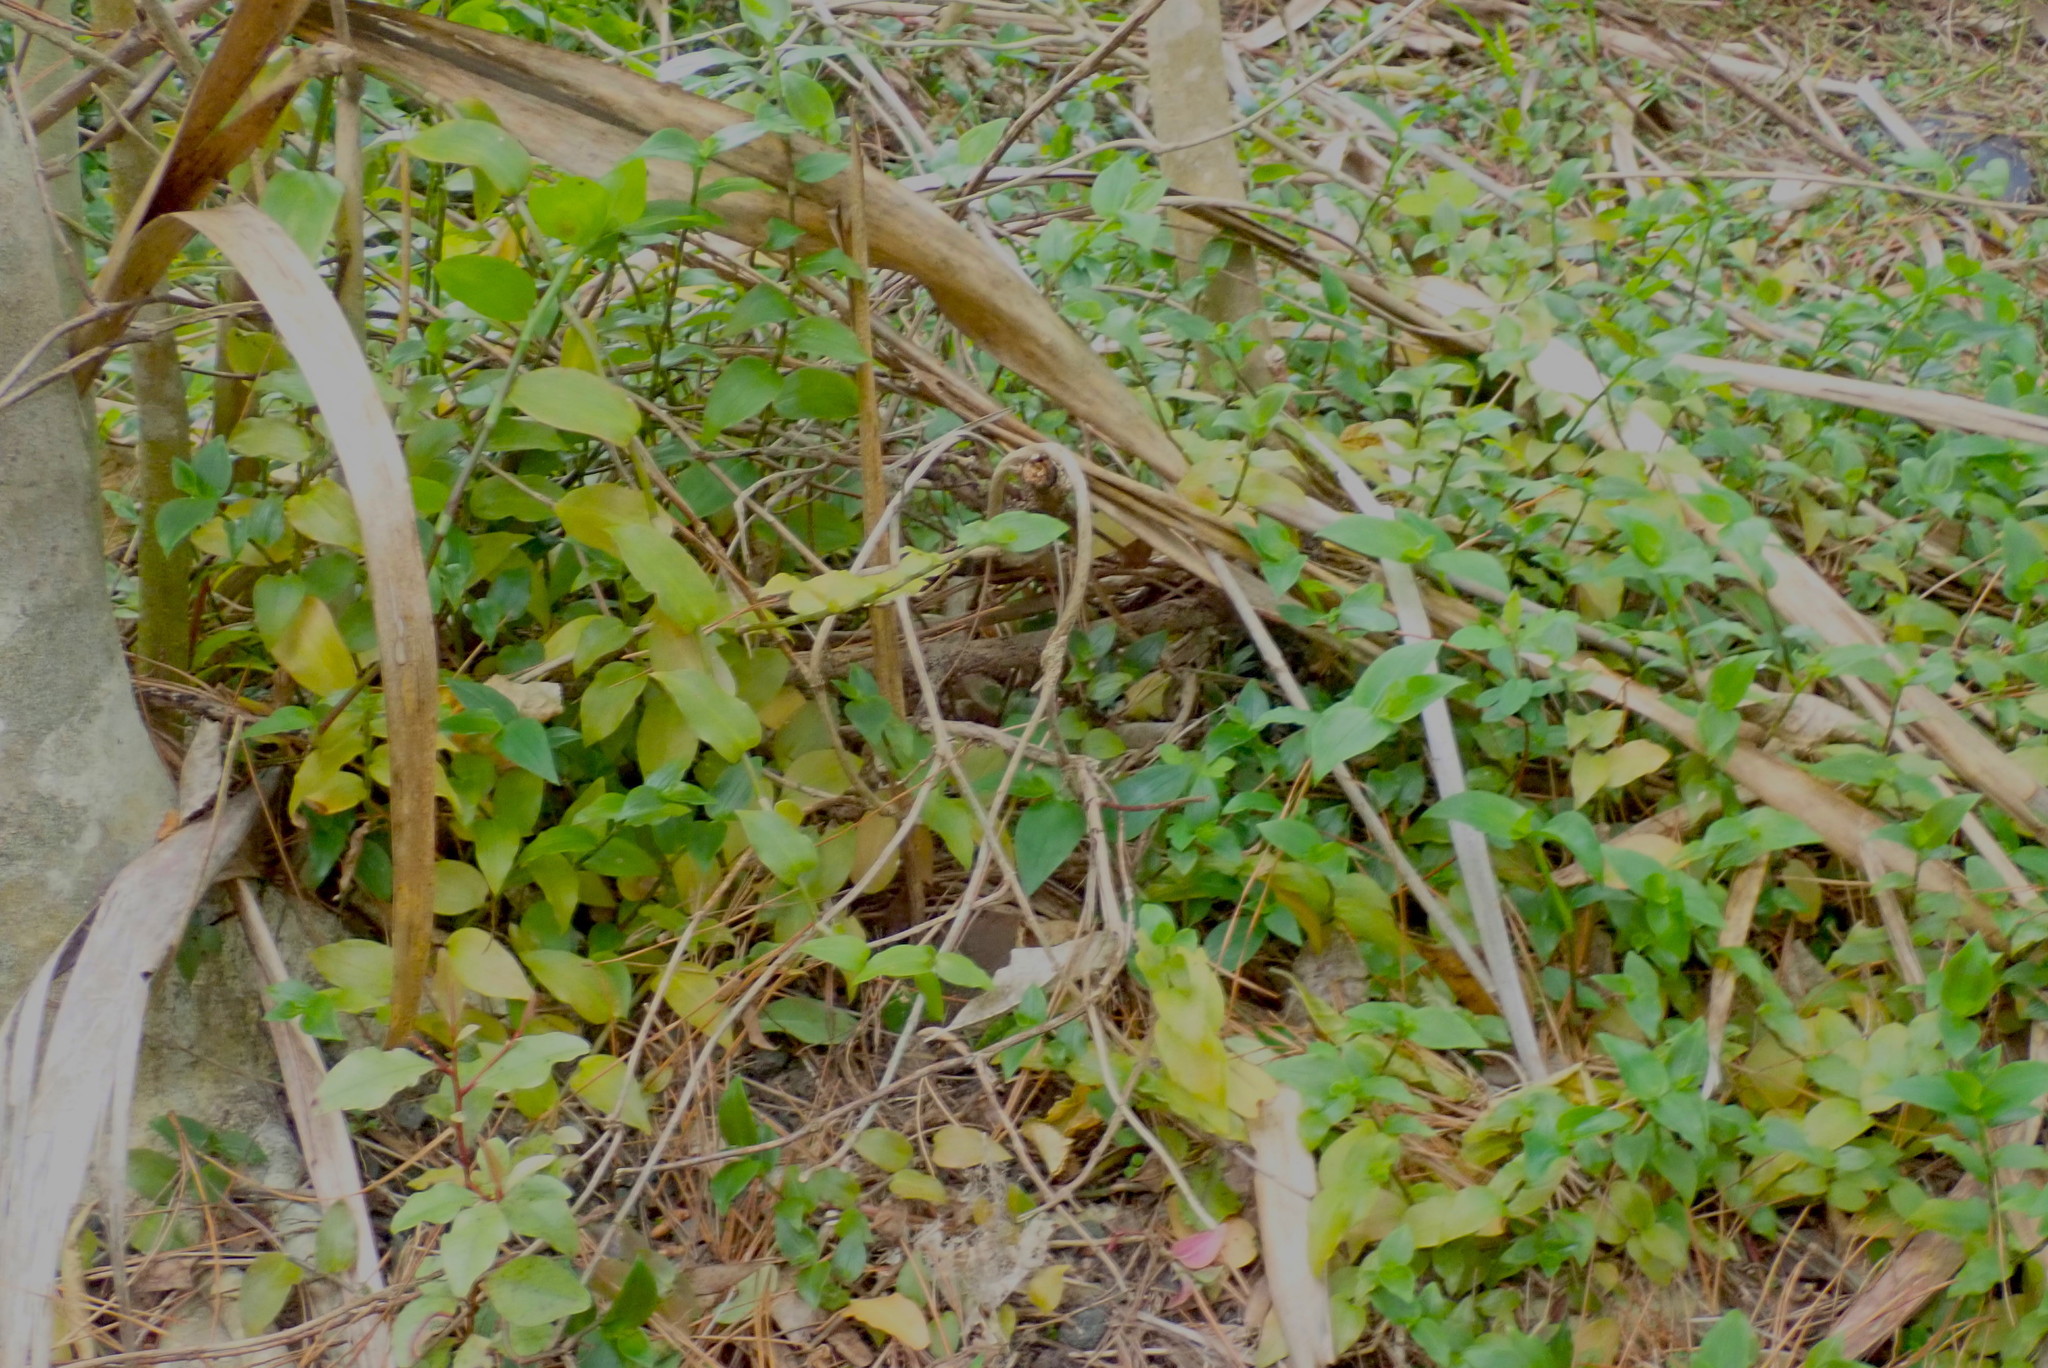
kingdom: Plantae
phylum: Tracheophyta
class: Liliopsida
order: Commelinales
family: Commelinaceae
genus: Tradescantia
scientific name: Tradescantia fluminensis
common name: Wandering-jew
